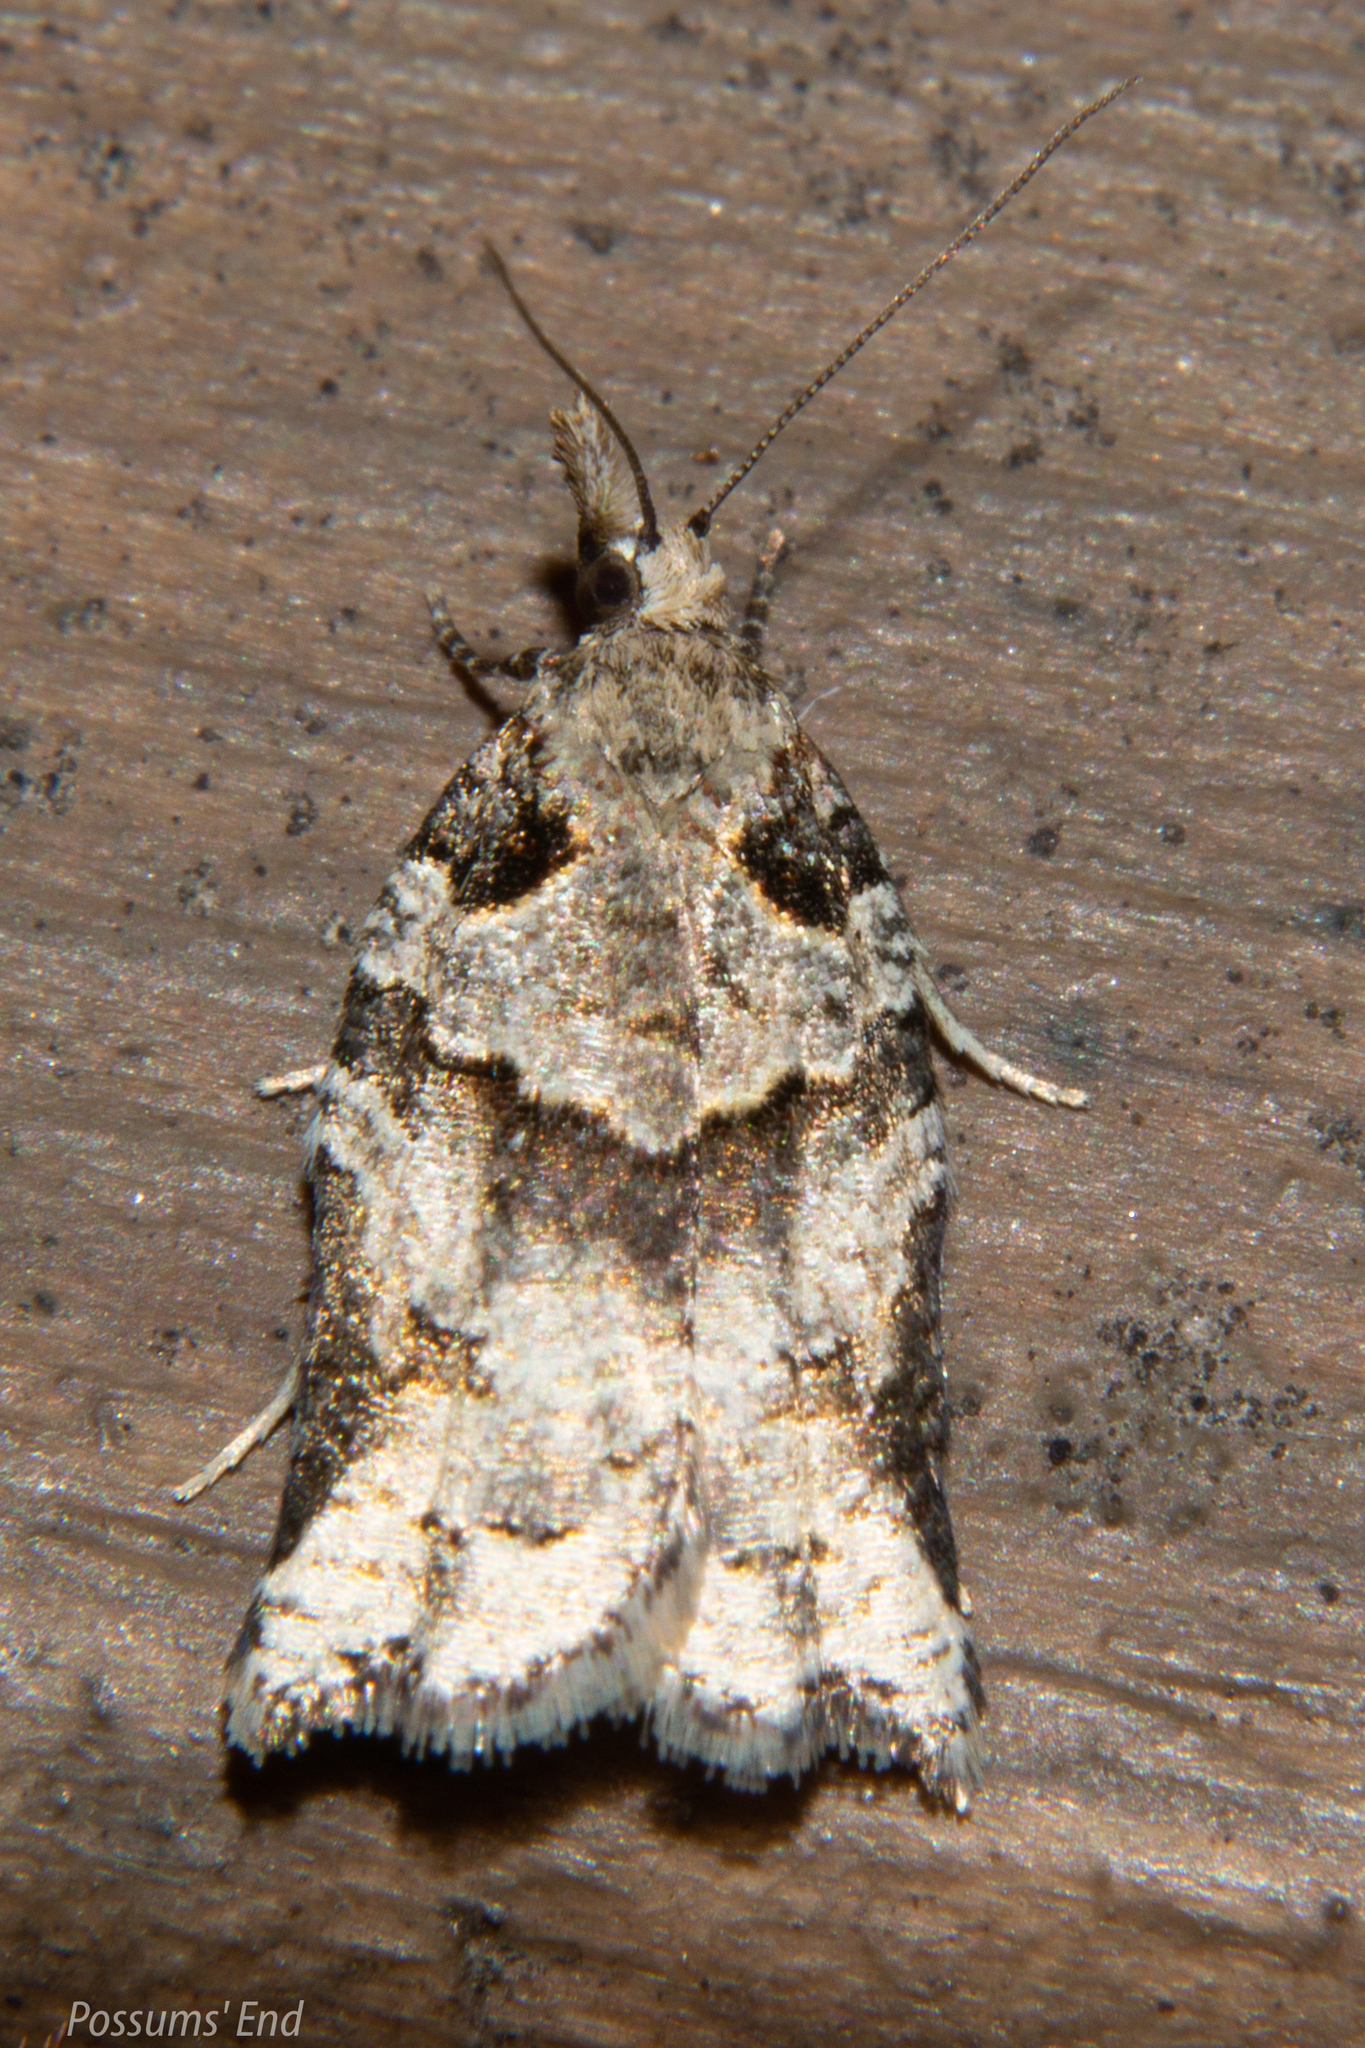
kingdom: Animalia
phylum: Arthropoda
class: Insecta
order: Lepidoptera
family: Tortricidae
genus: Harmologa
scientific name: Harmologa amplexana
